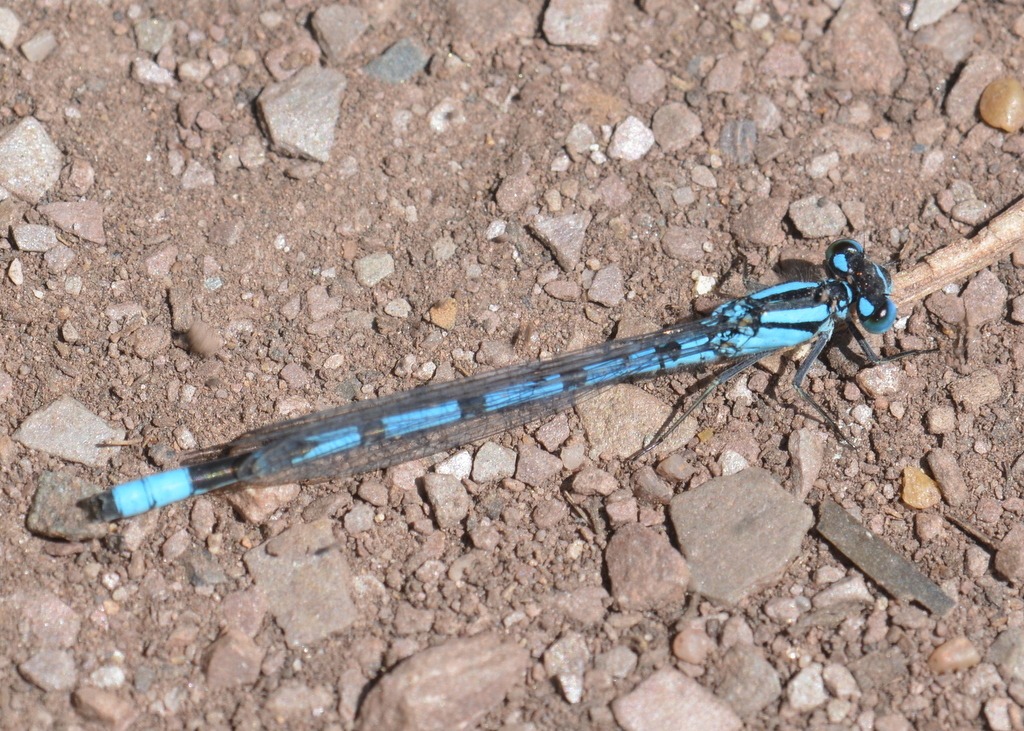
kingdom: Animalia
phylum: Arthropoda
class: Insecta
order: Odonata
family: Coenagrionidae
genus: Enallagma
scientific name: Enallagma cyathigerum
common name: Common blue damselfly
